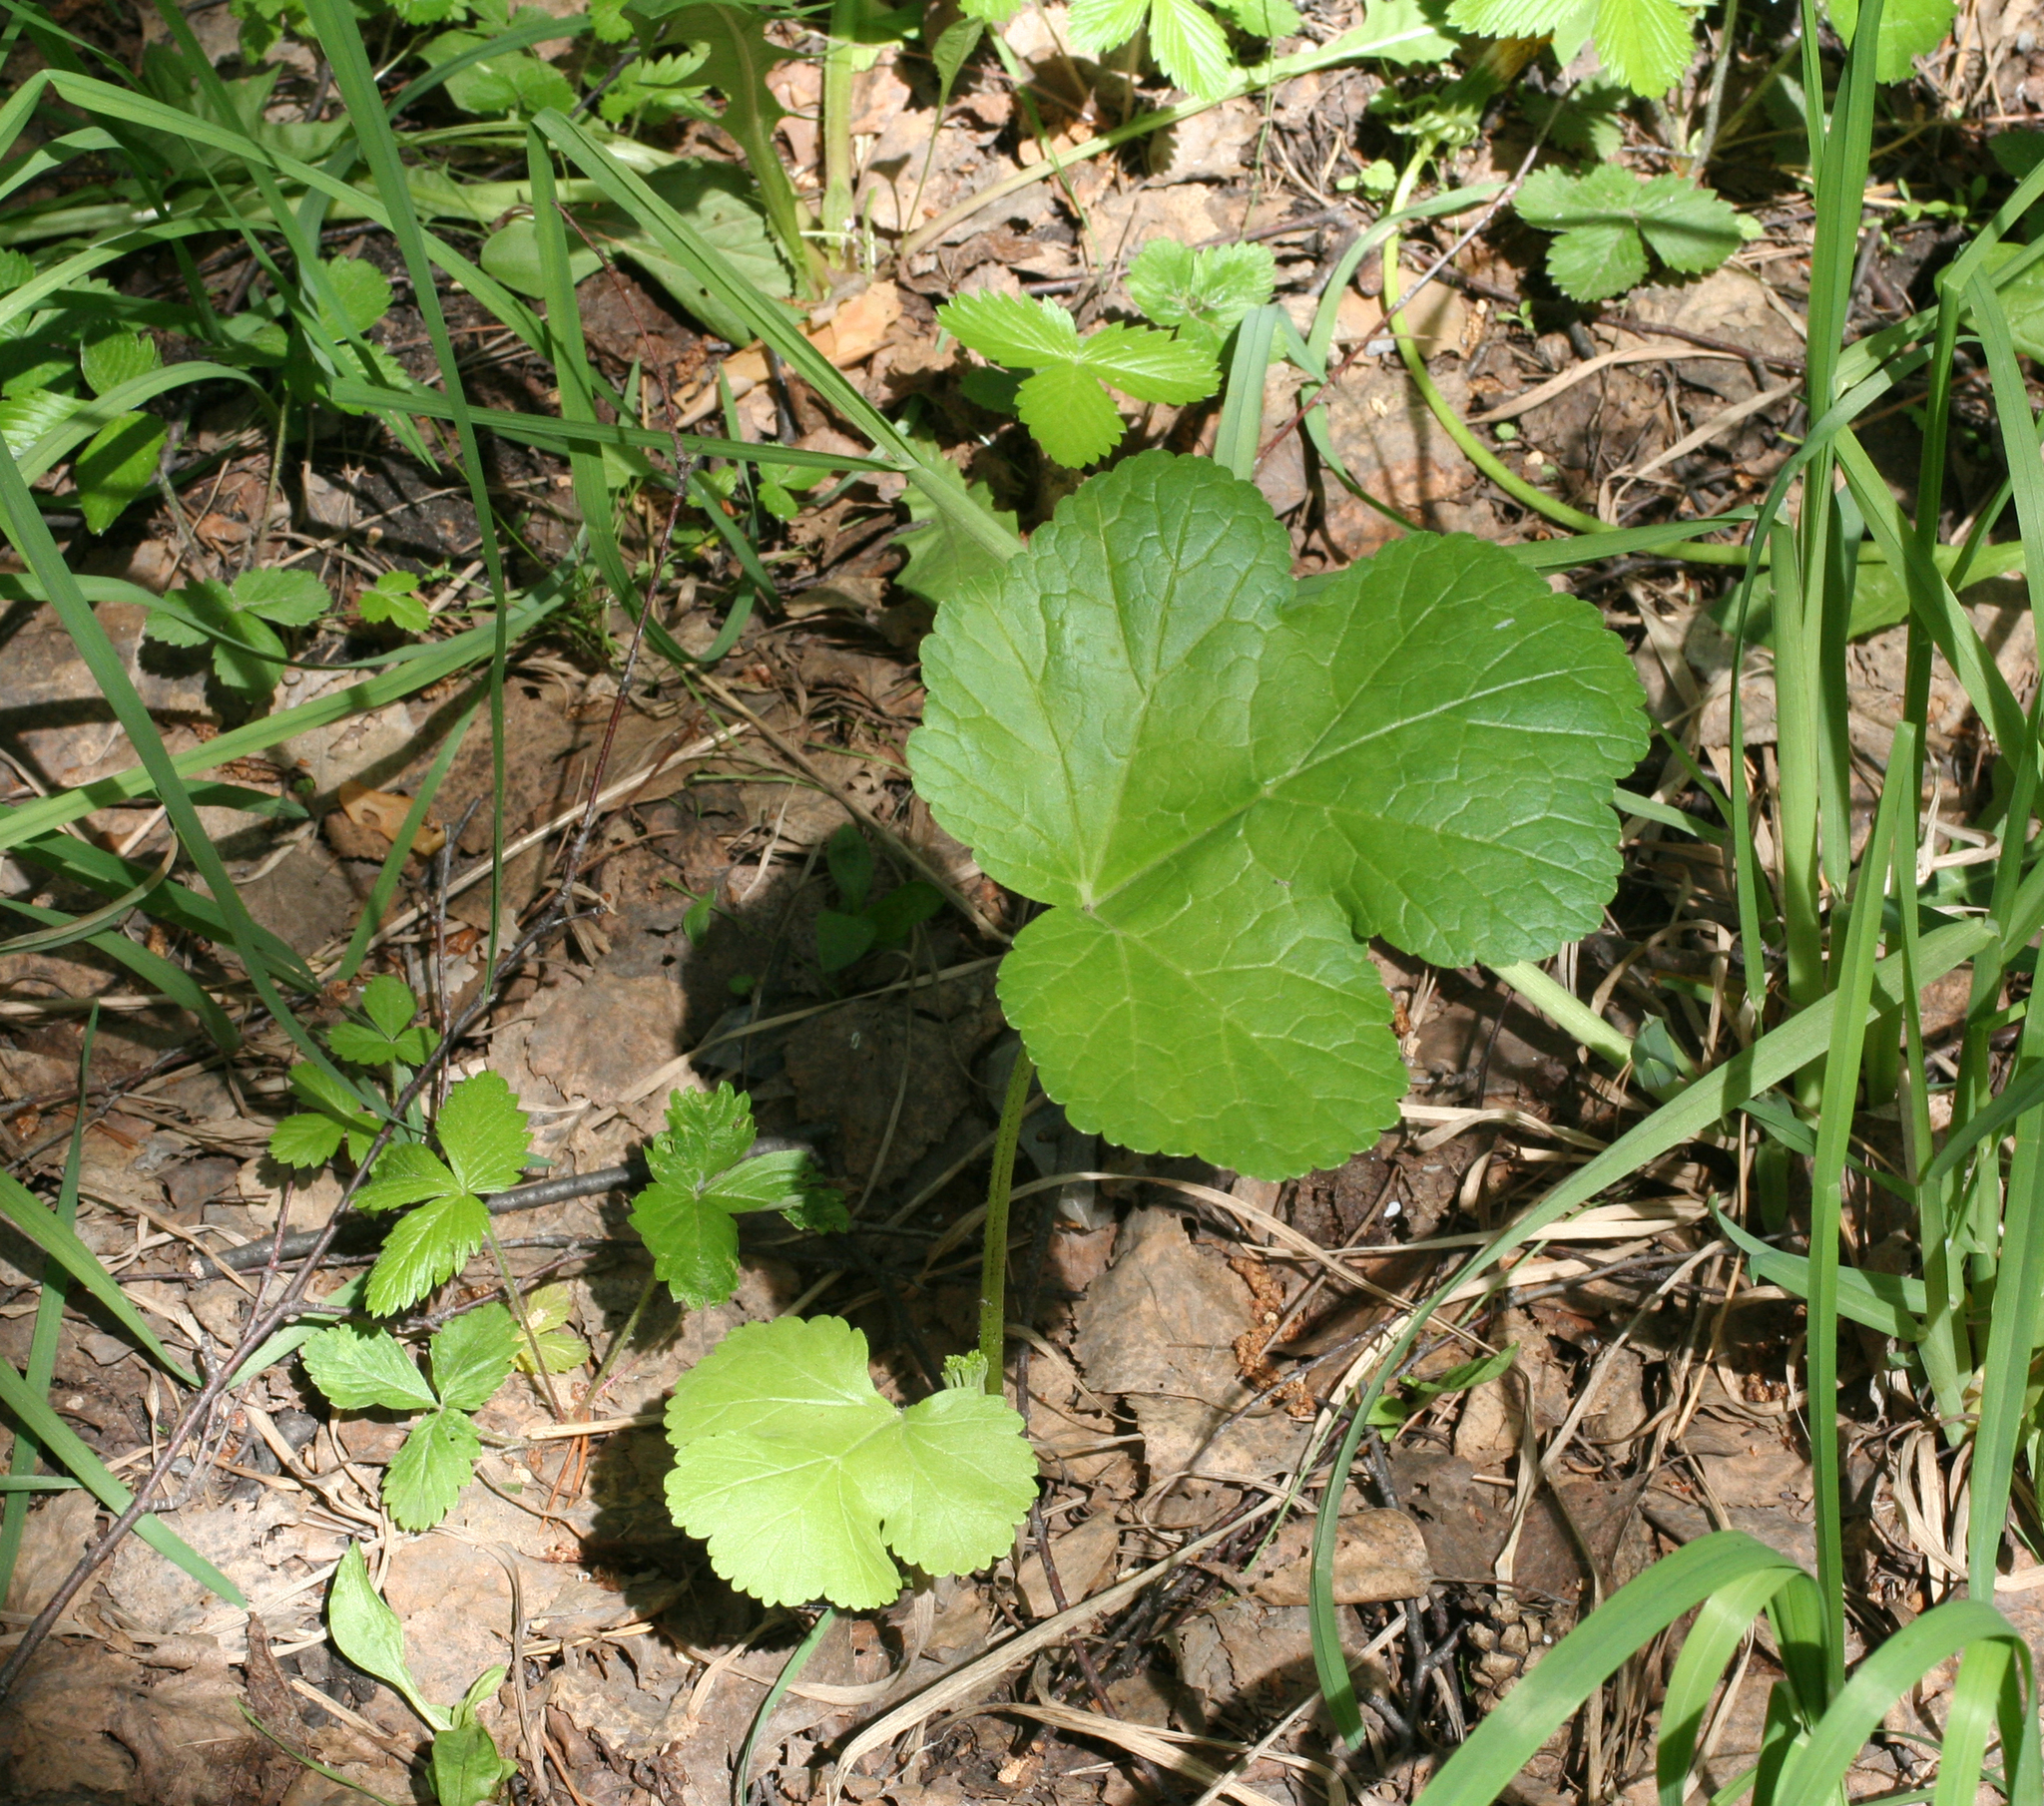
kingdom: Plantae
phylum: Tracheophyta
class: Magnoliopsida
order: Apiales
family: Apiaceae
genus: Heracleum
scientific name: Heracleum sosnowskyi
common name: Sosnowsky's hogweed
